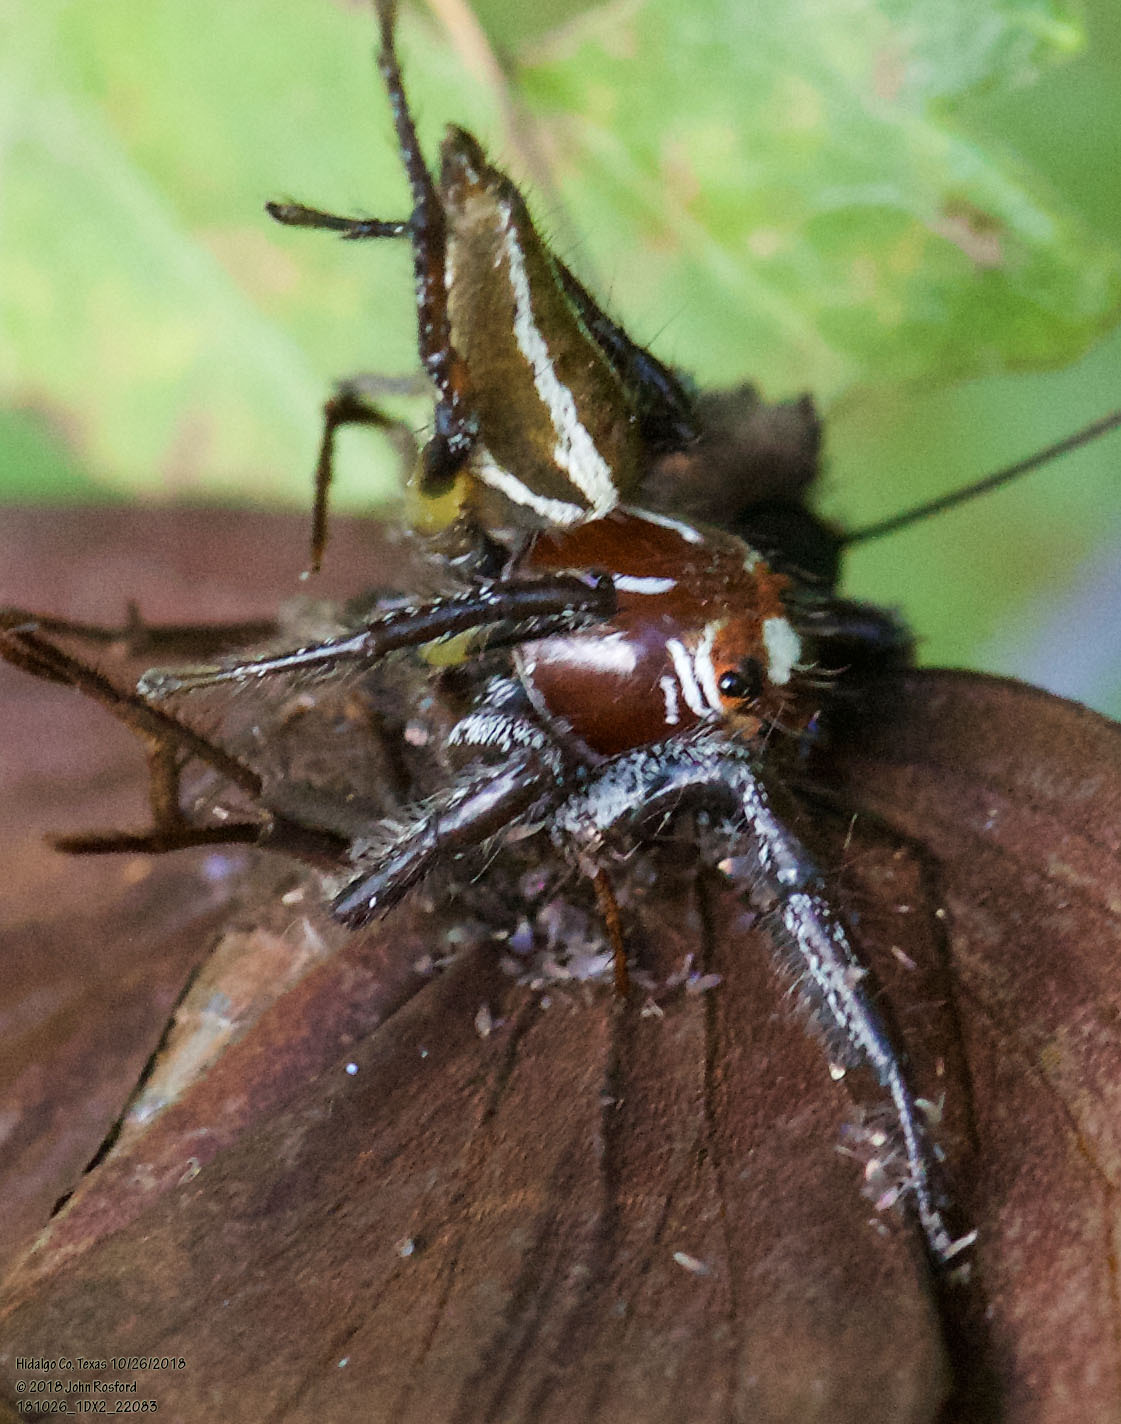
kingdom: Animalia
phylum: Arthropoda
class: Arachnida
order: Araneae
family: Salticidae
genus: Colonus
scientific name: Colonus sylvanus
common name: Jumping spiders
